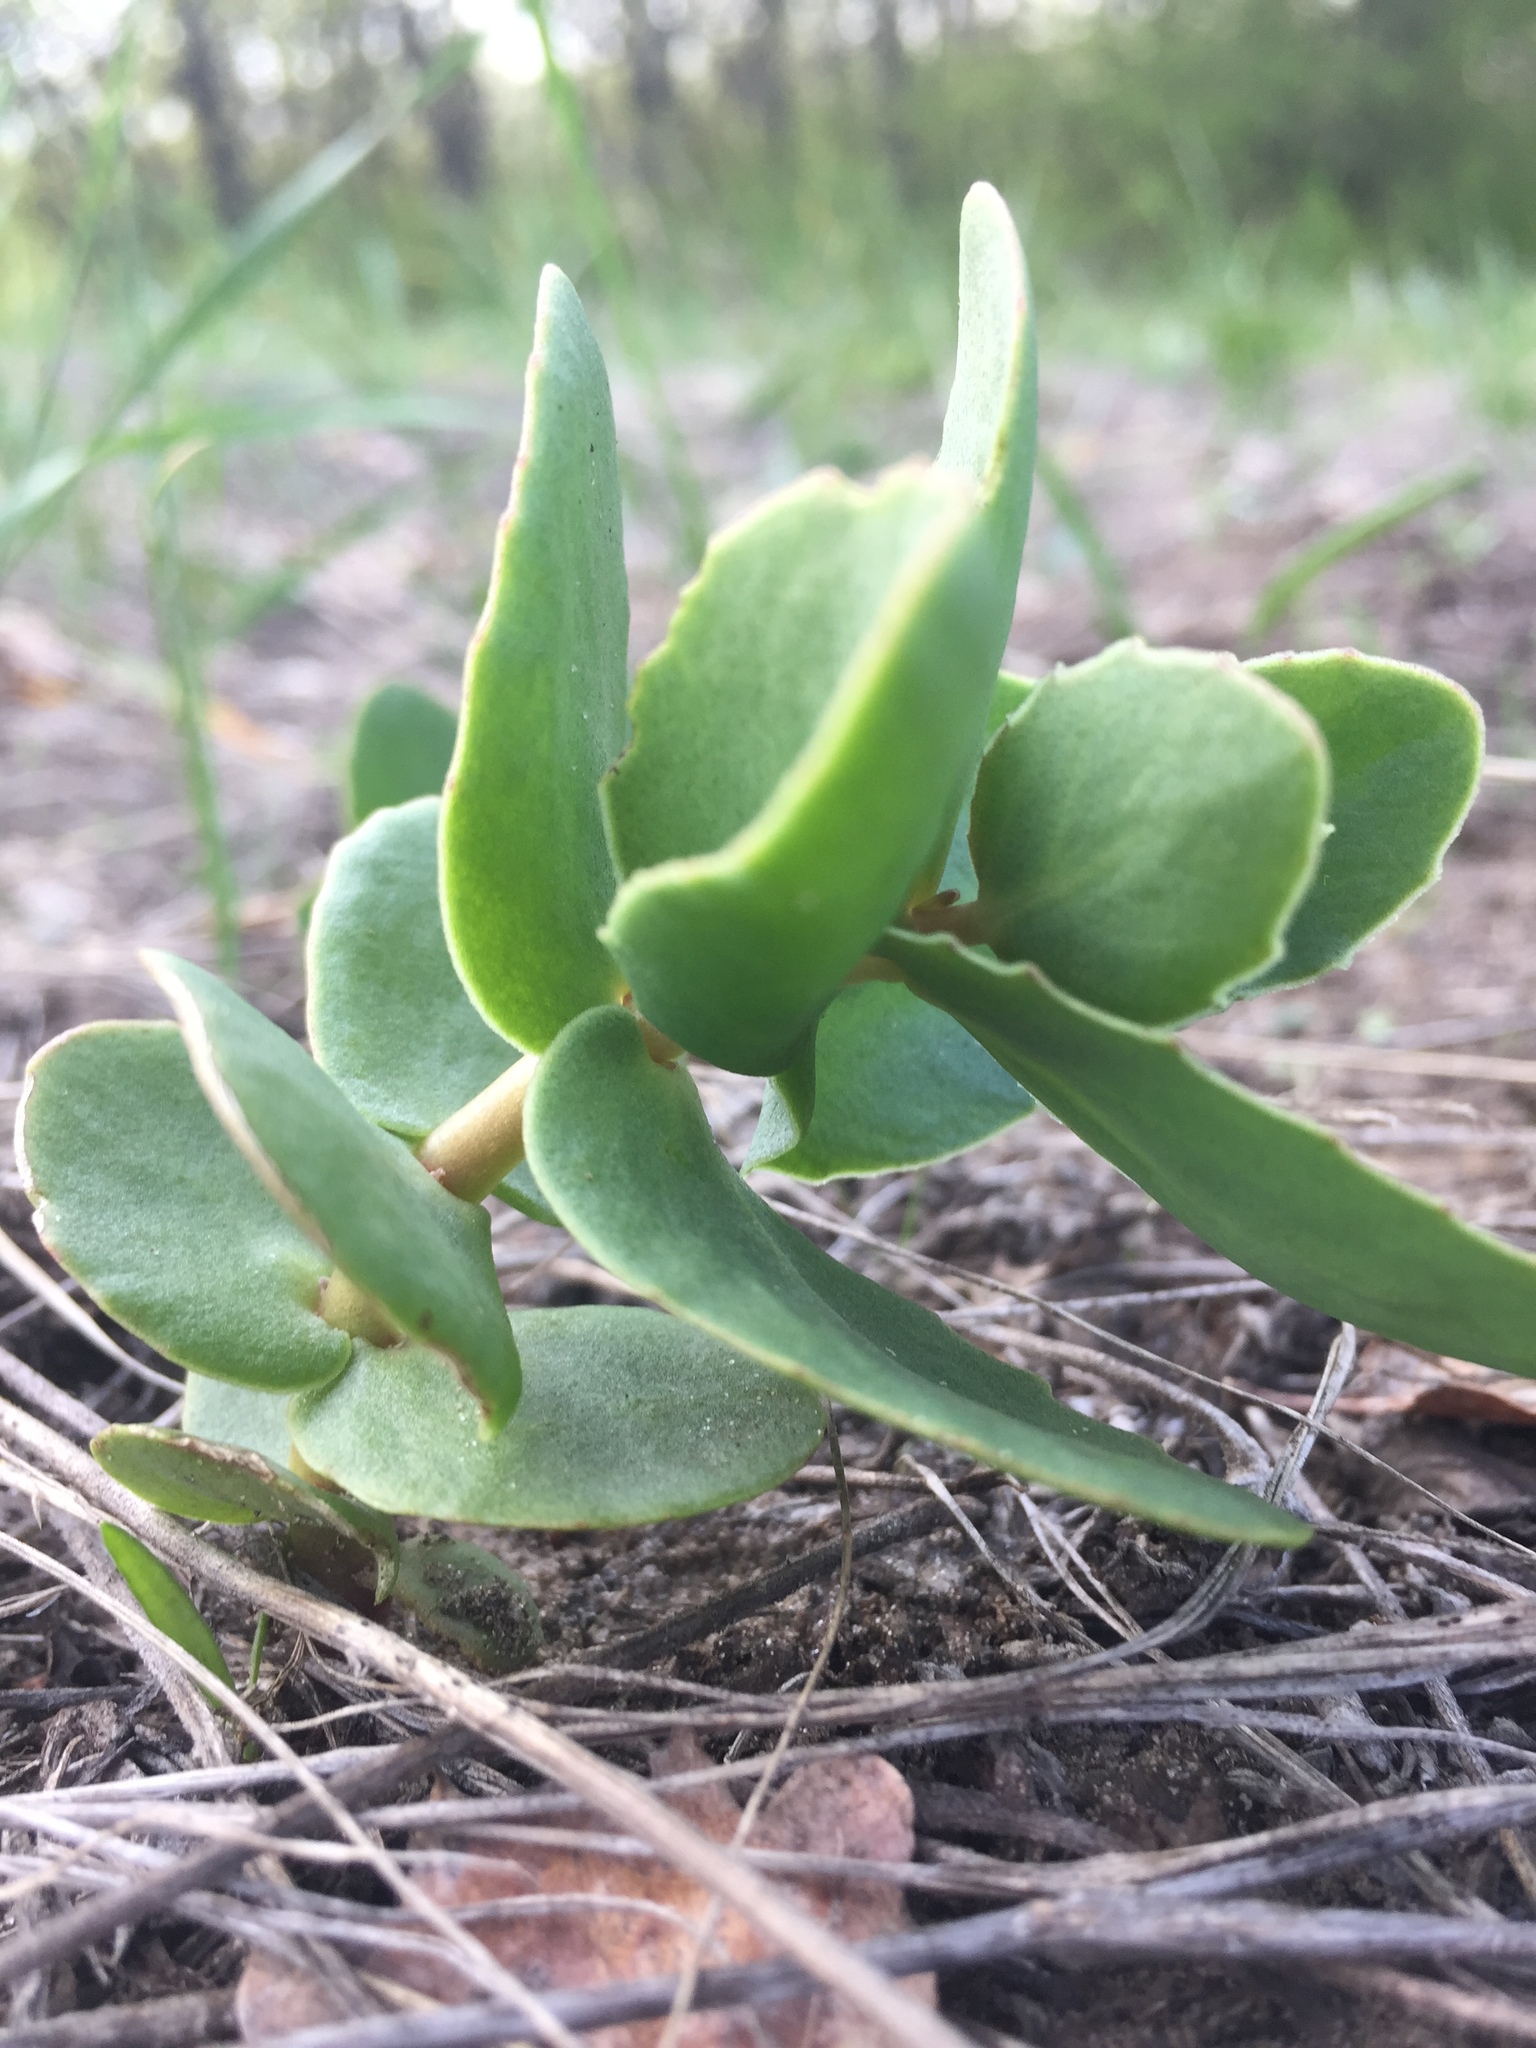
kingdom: Plantae
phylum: Tracheophyta
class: Magnoliopsida
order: Saxifragales
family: Crassulaceae
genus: Hylotelephium
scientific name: Hylotelephium maximum
